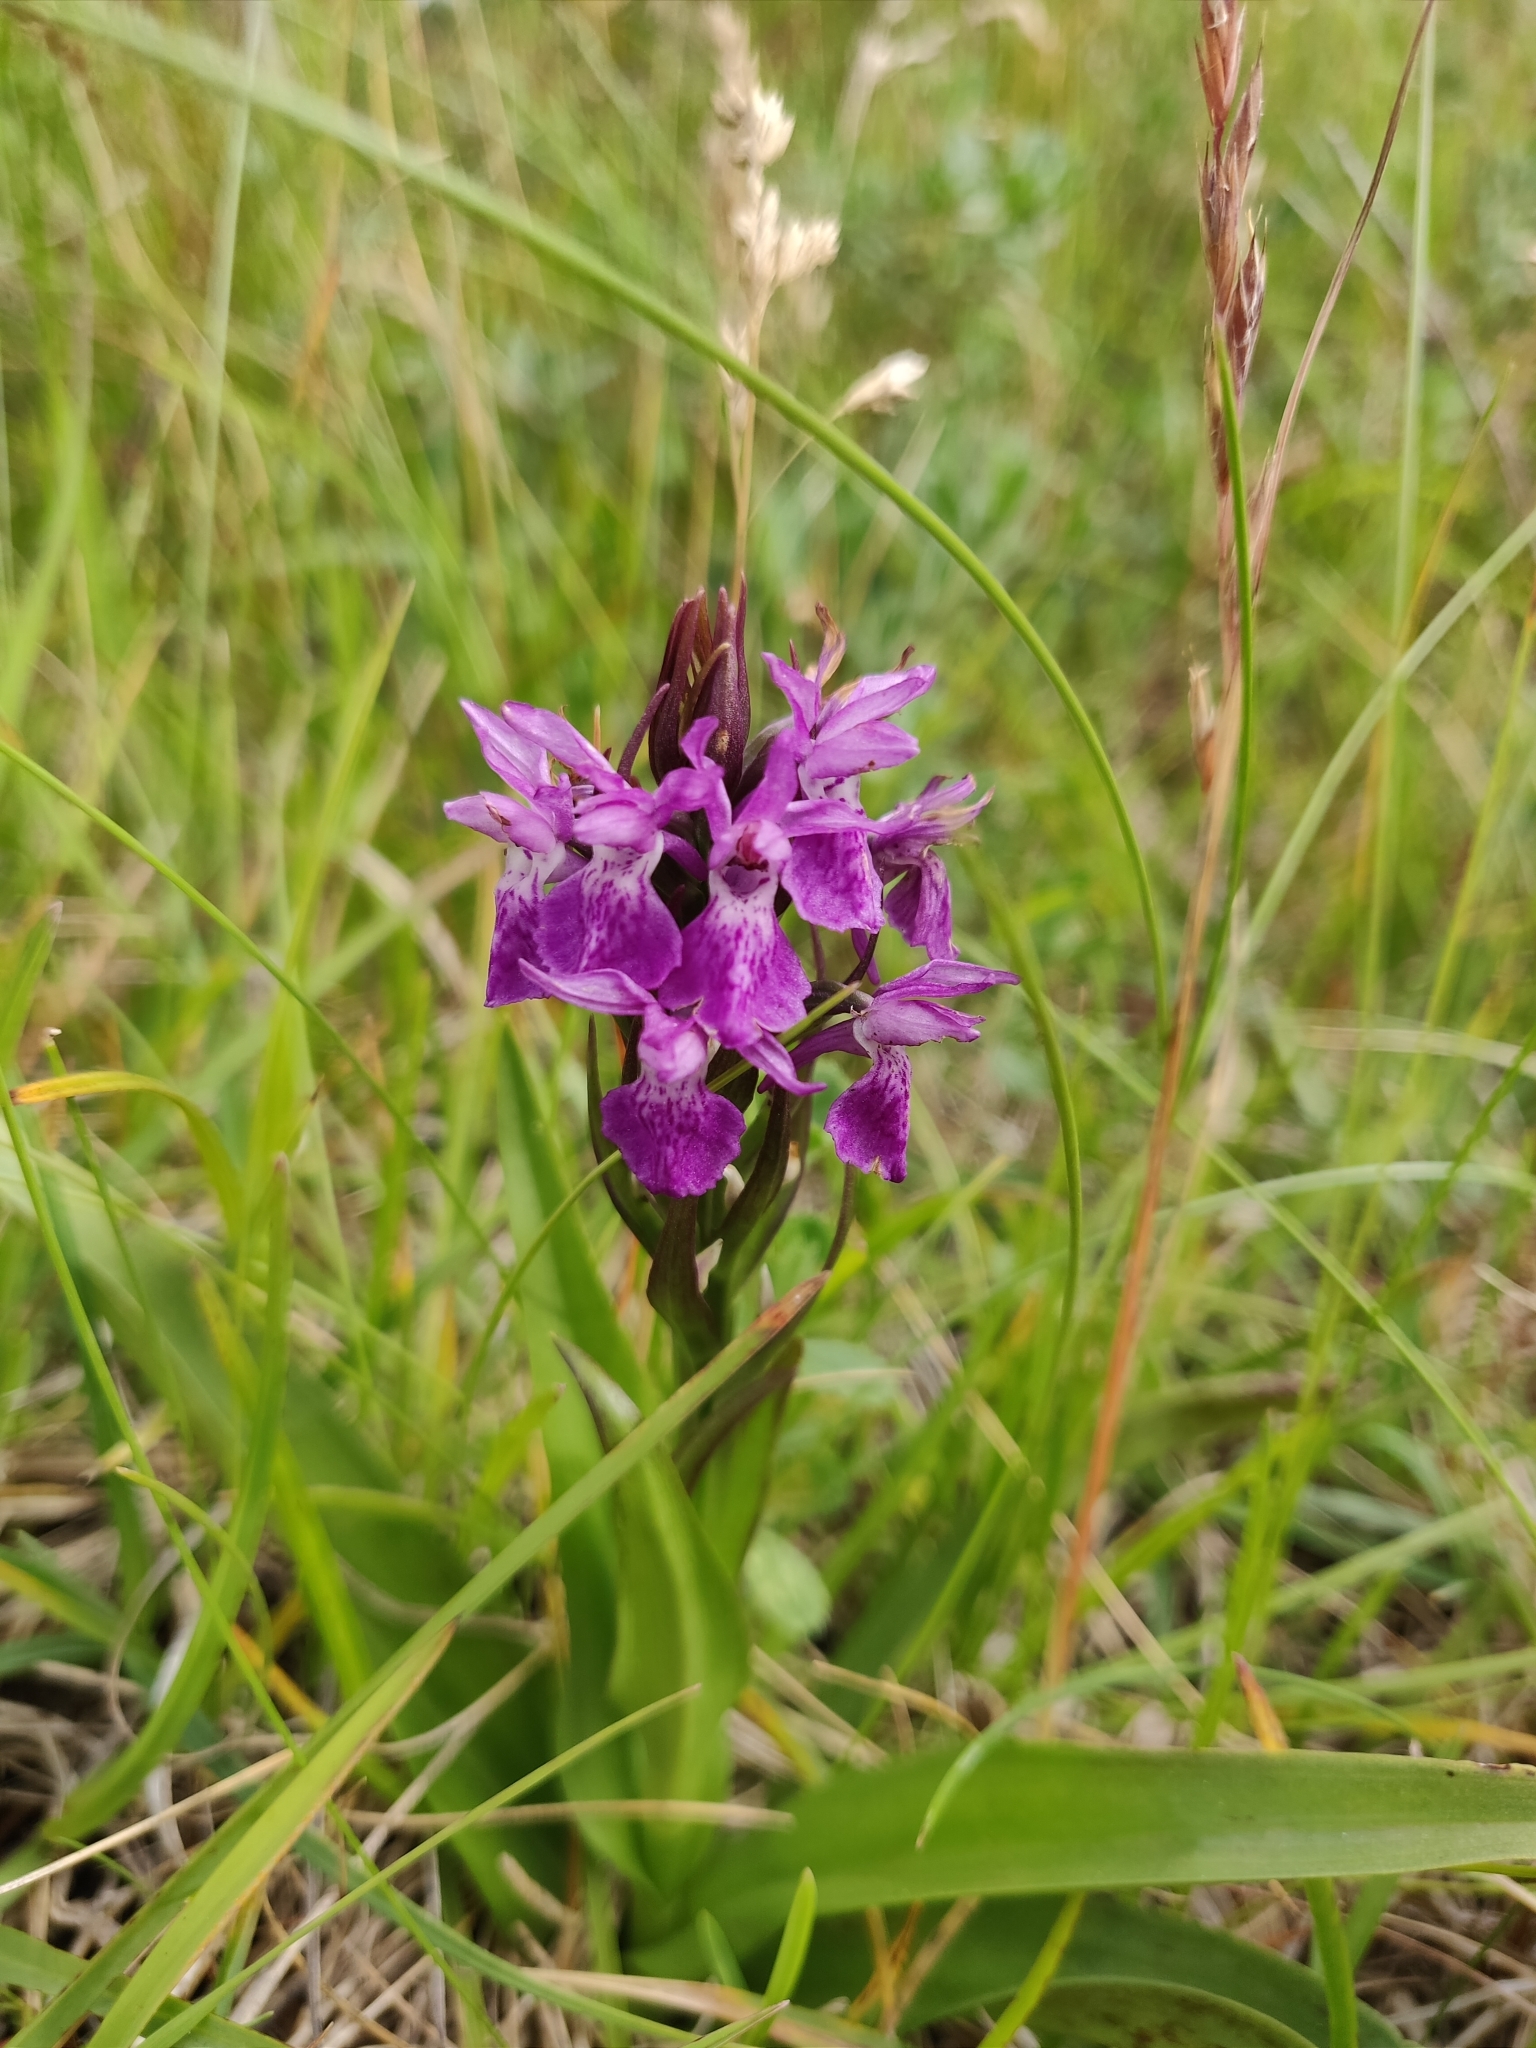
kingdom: Plantae
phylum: Tracheophyta
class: Liliopsida
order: Asparagales
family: Orchidaceae
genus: Dactylorhiza
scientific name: Dactylorhiza majalis
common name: Marsh orchid
